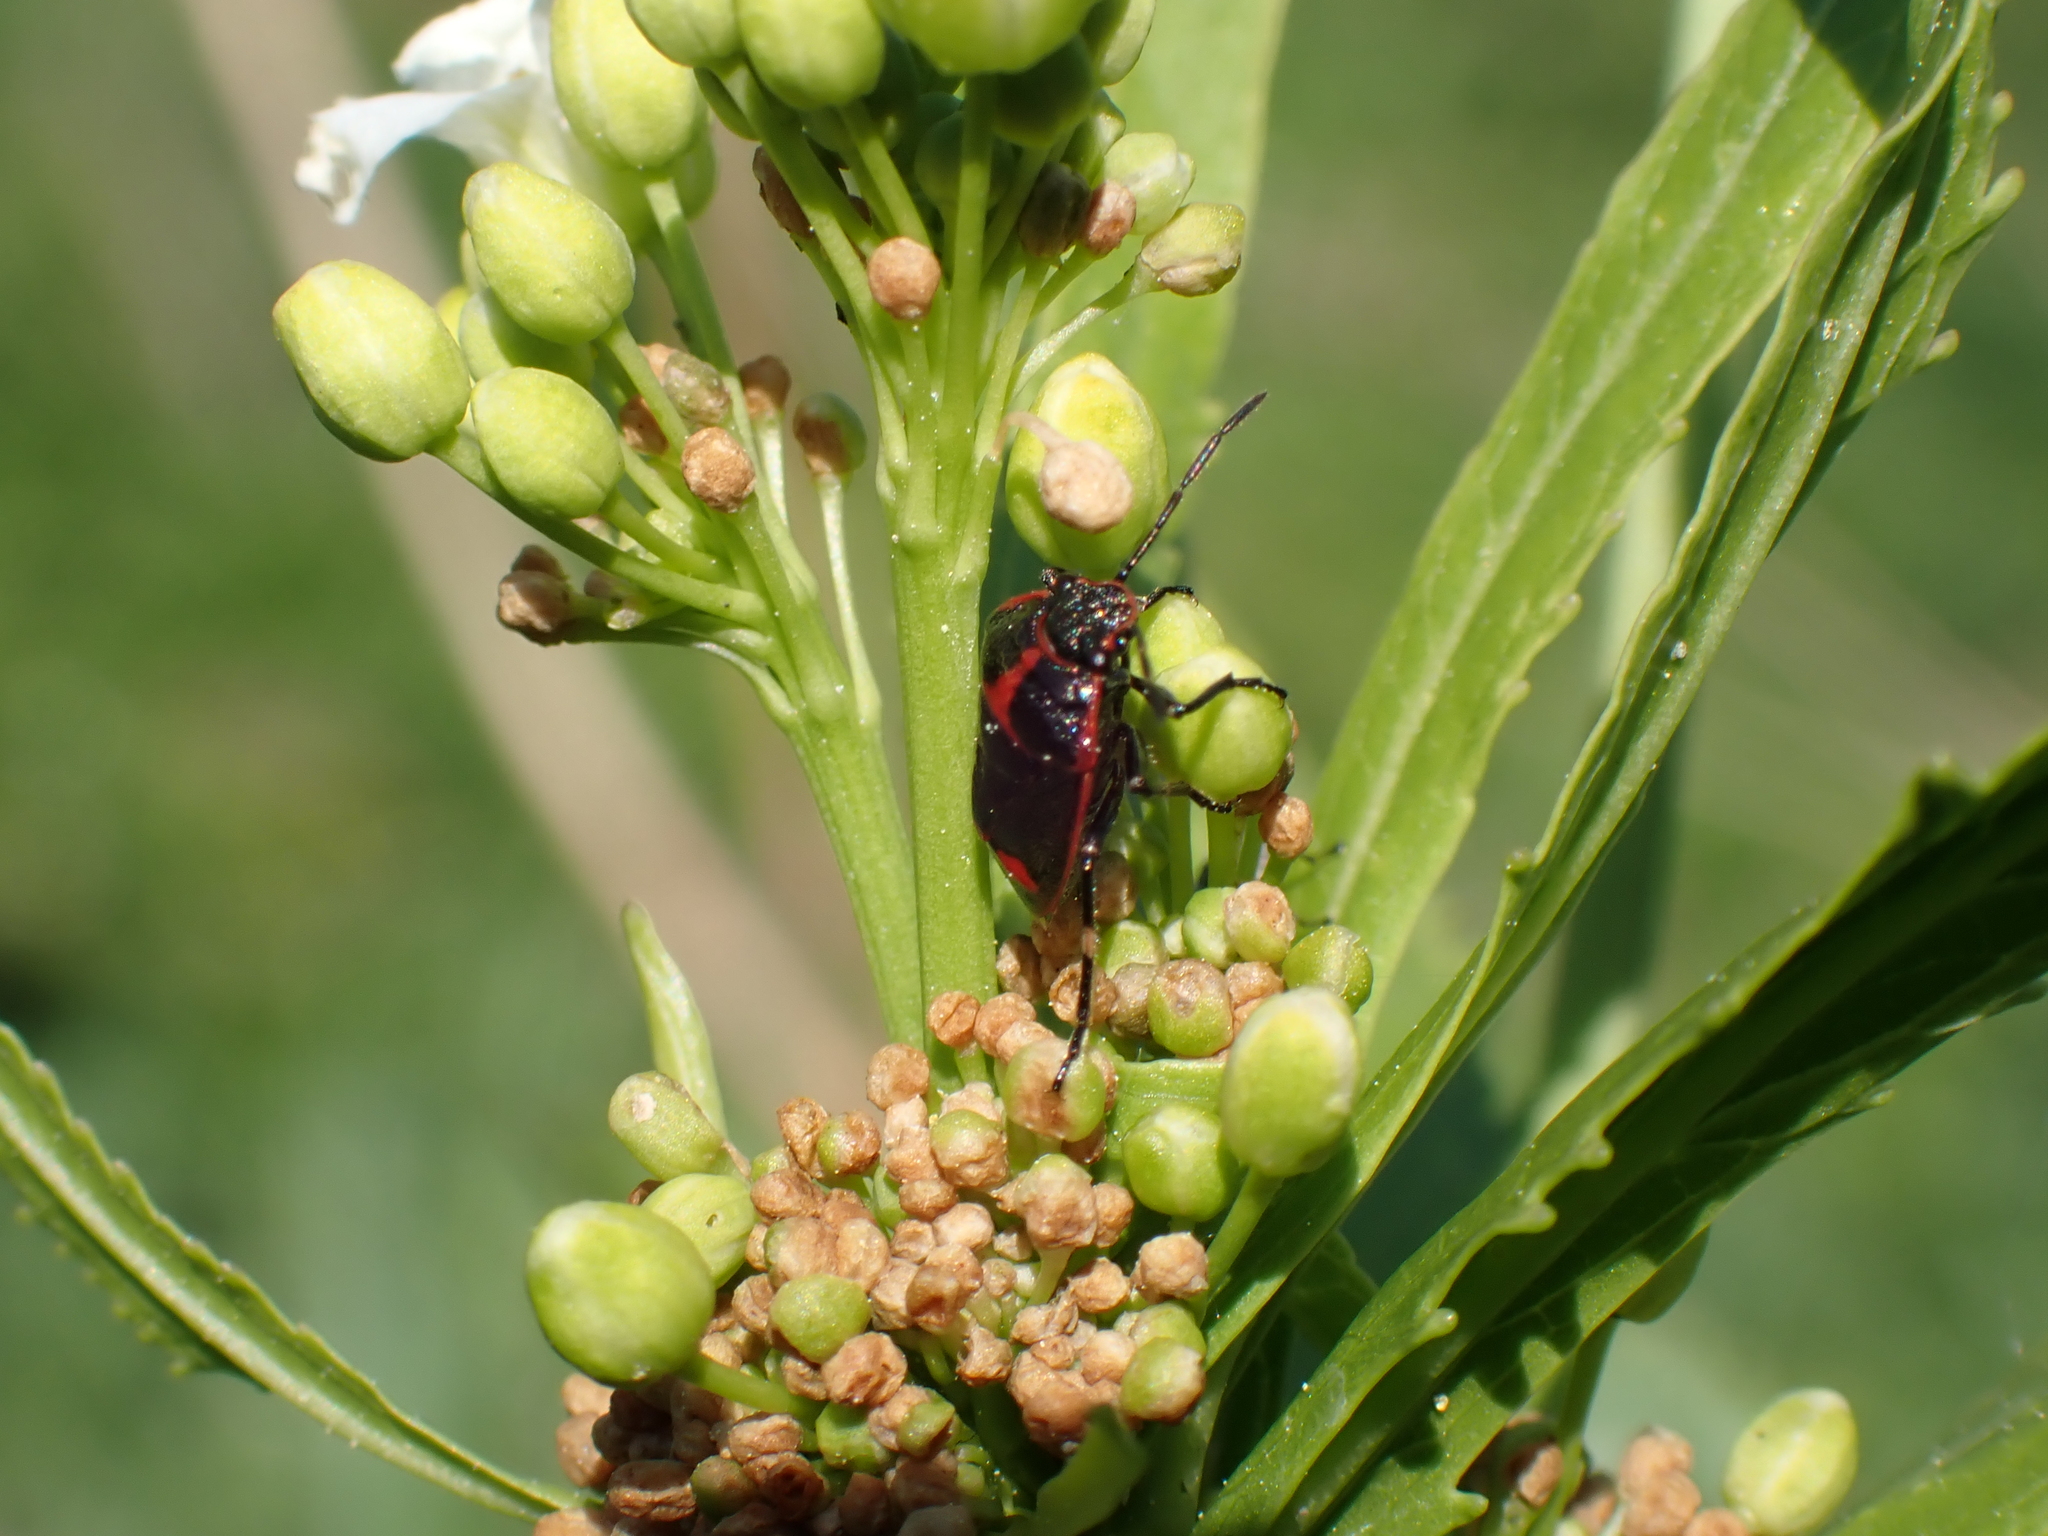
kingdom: Animalia
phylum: Arthropoda
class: Insecta
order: Hemiptera
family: Pentatomidae
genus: Eurydema
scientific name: Eurydema oleracea
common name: Cabbage bug
